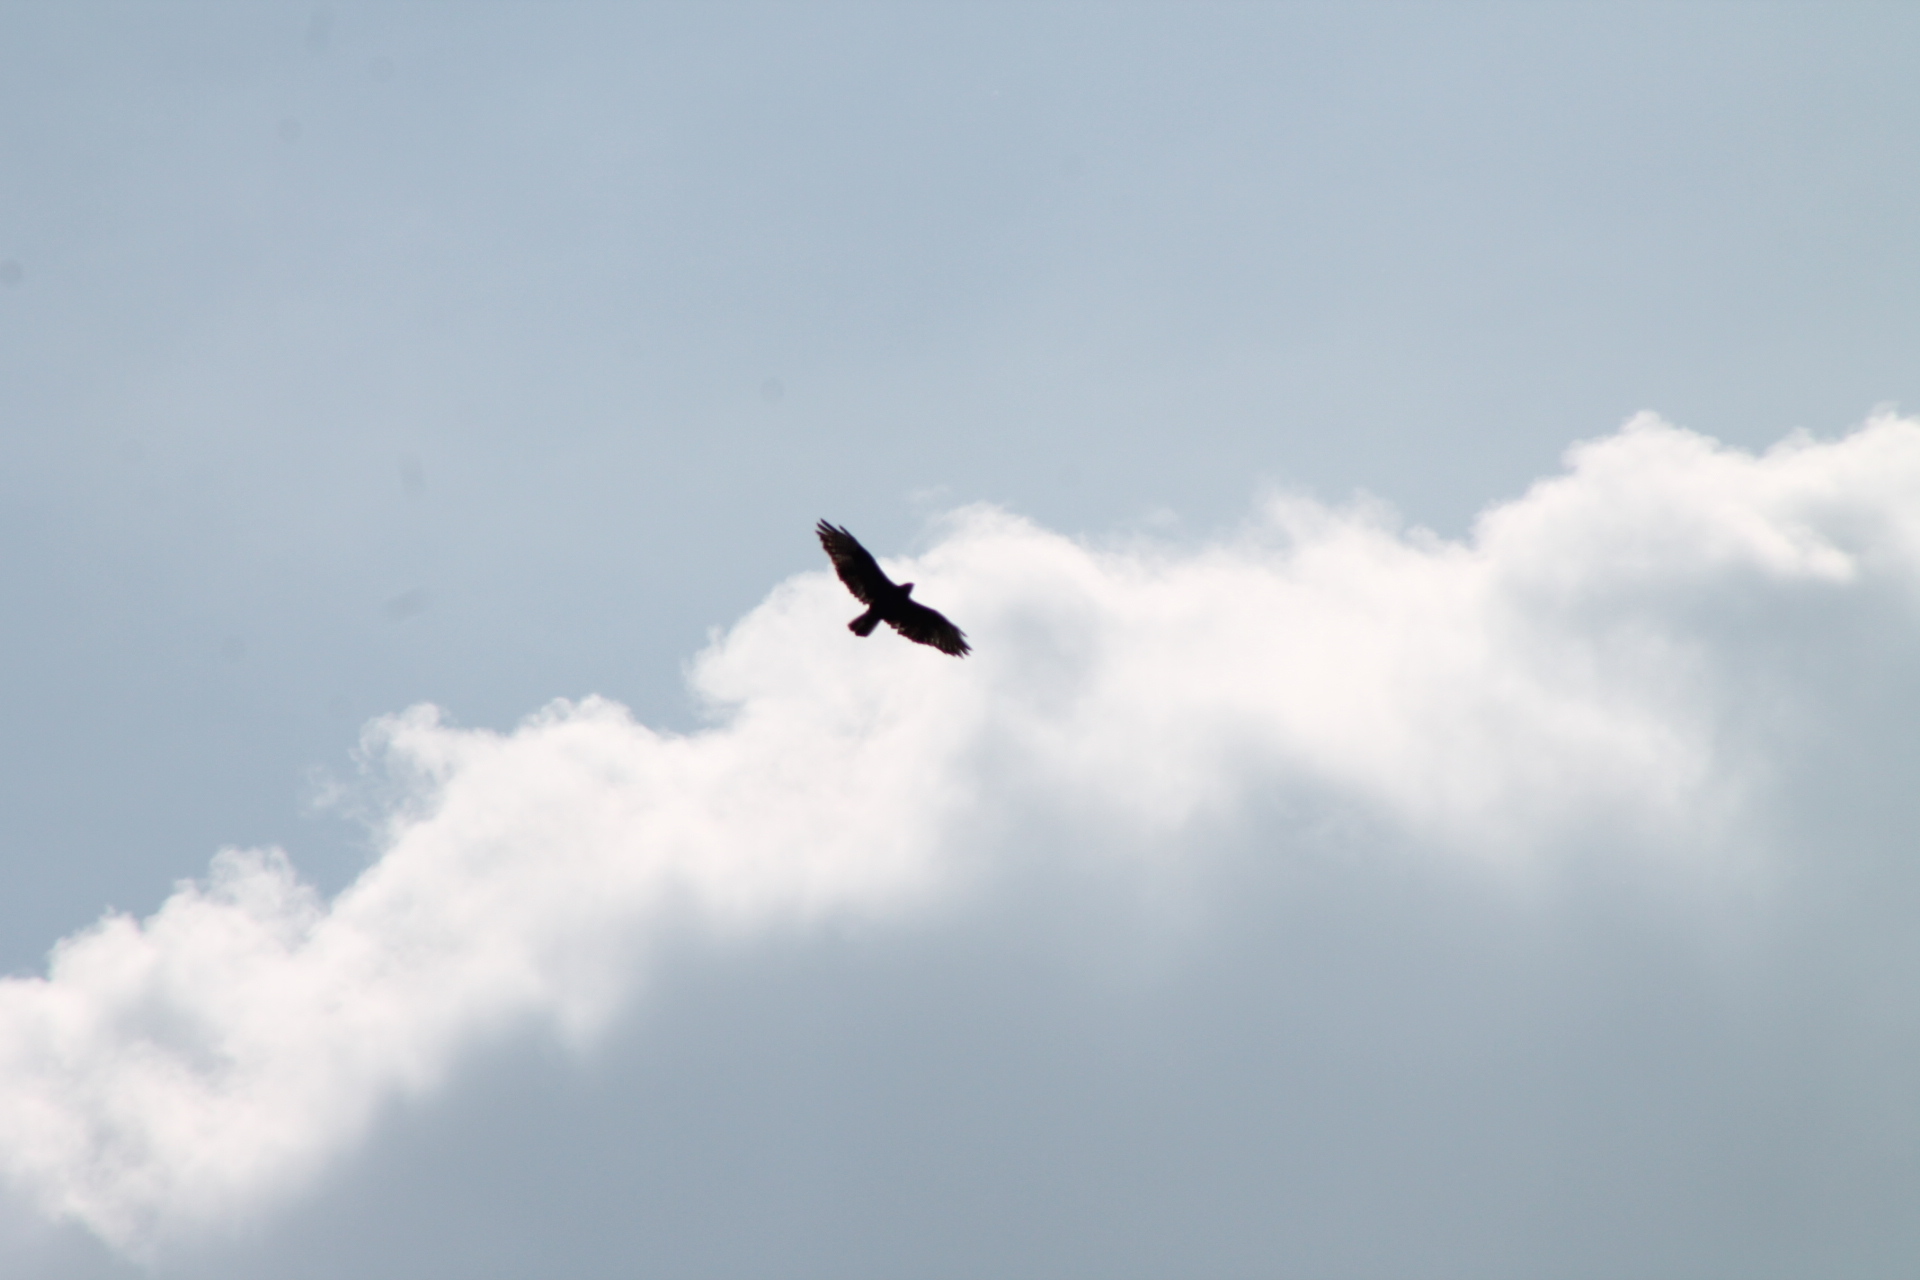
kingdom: Animalia
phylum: Chordata
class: Aves
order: Accipitriformes
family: Accipitridae
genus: Buteo
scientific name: Buteo buteo
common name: Common buzzard
